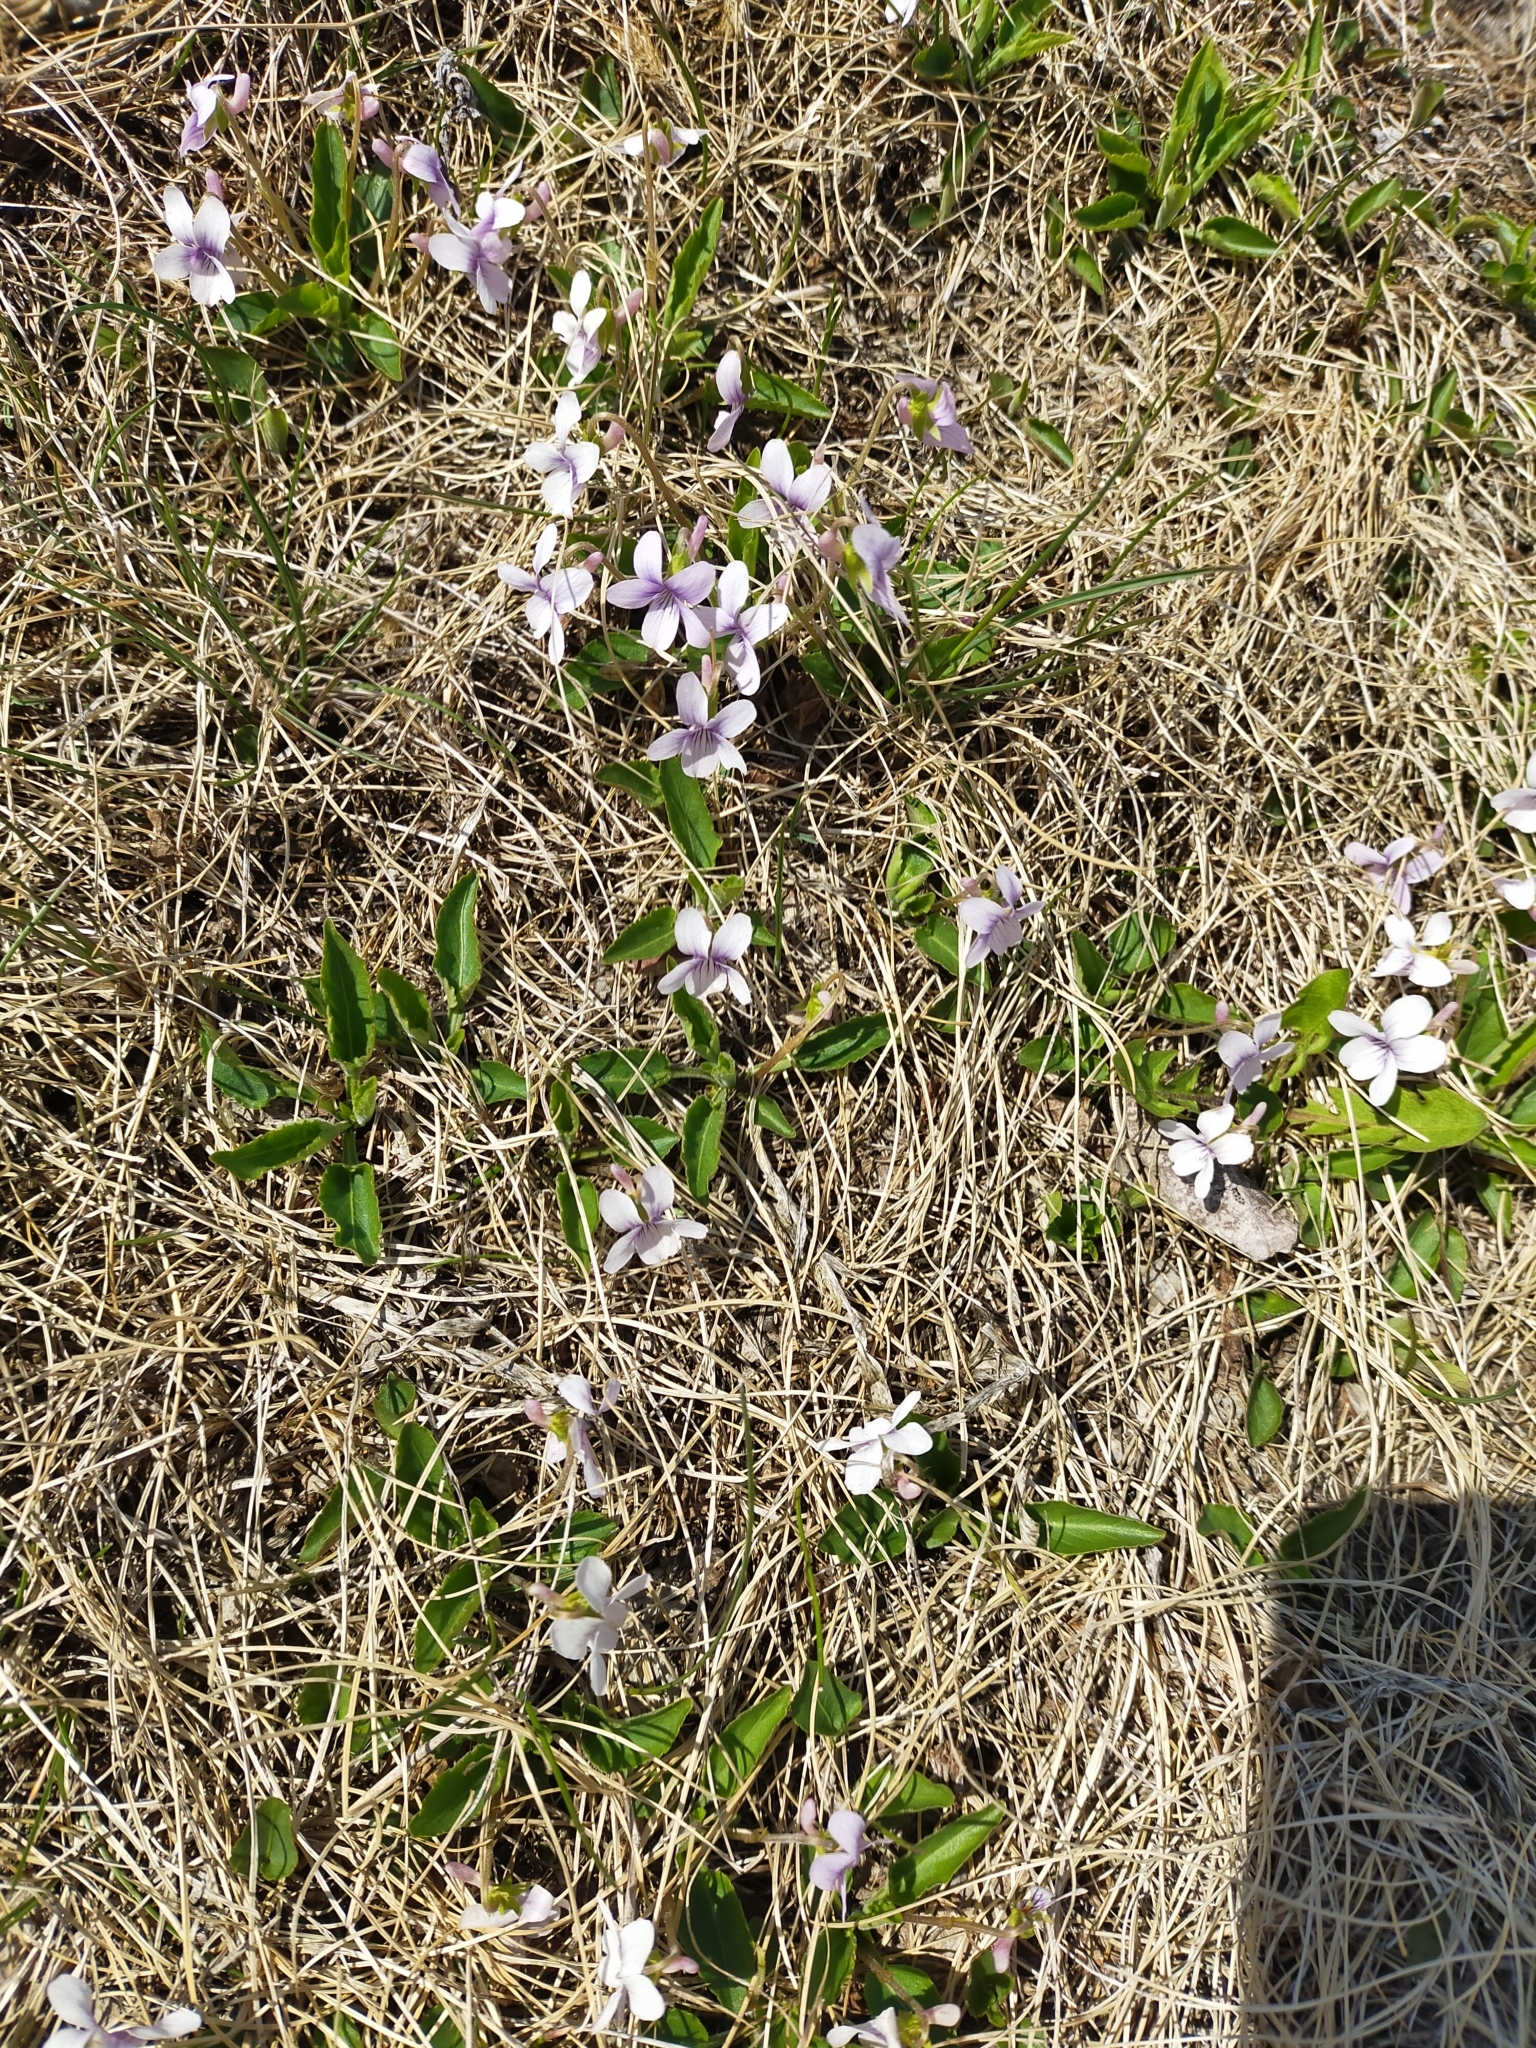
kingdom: Plantae
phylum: Tracheophyta
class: Magnoliopsida
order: Malpighiales
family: Violaceae
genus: Viola
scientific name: Viola prionantha
